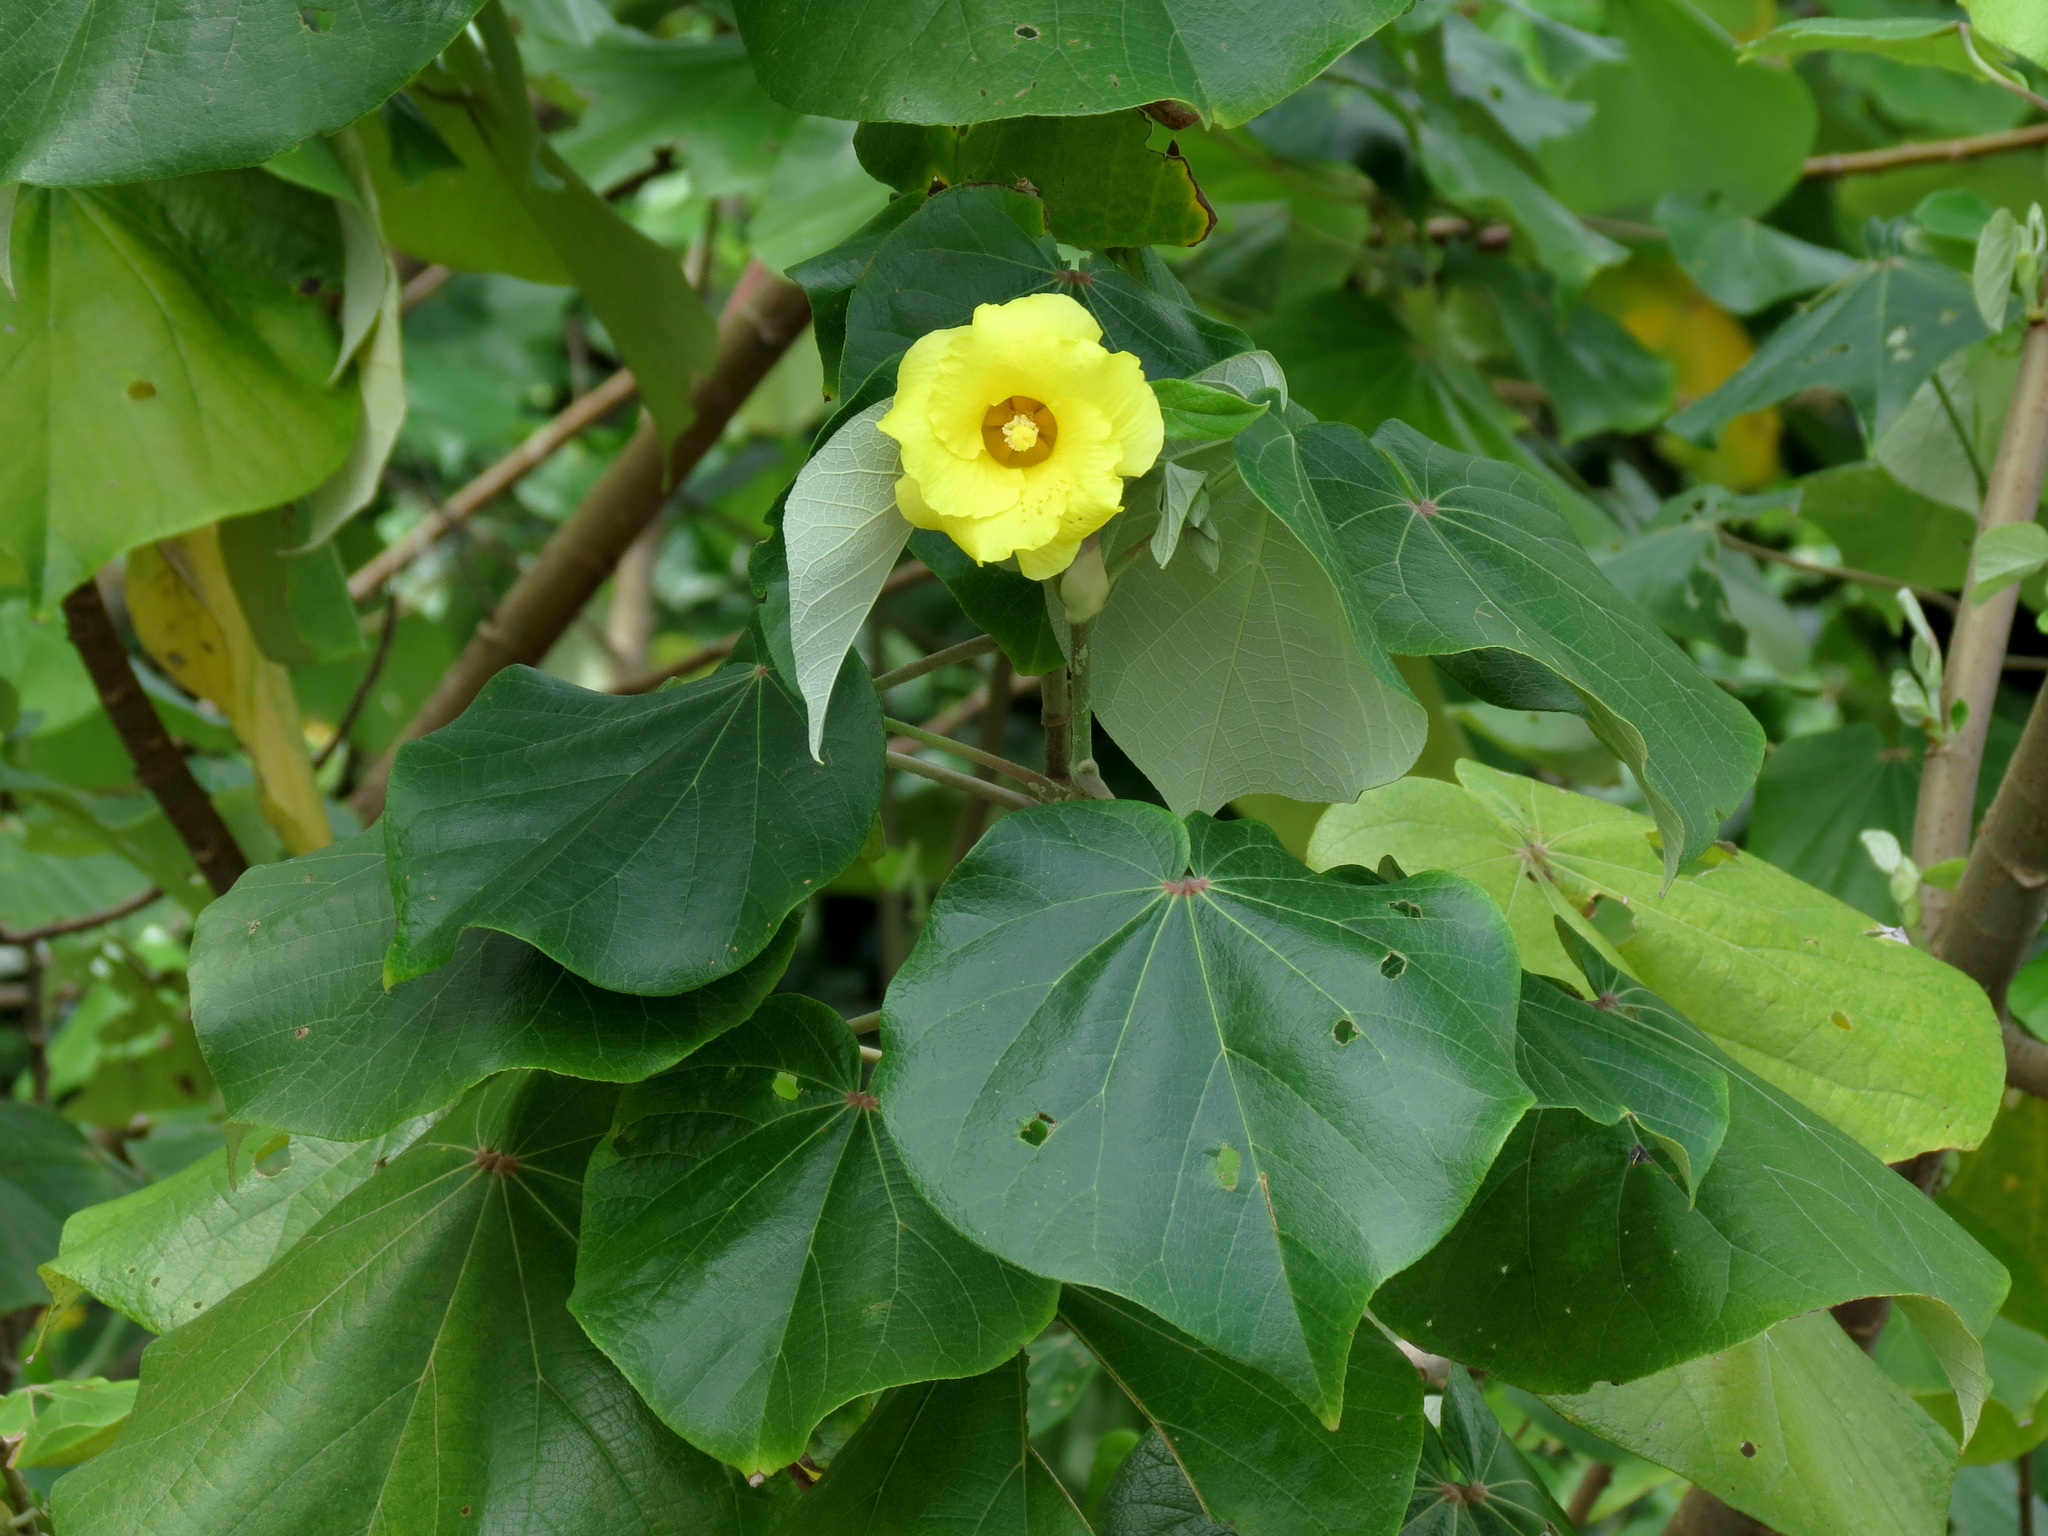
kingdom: Plantae
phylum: Tracheophyta
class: Magnoliopsida
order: Malvales
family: Malvaceae
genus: Talipariti
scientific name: Talipariti pernambucense
